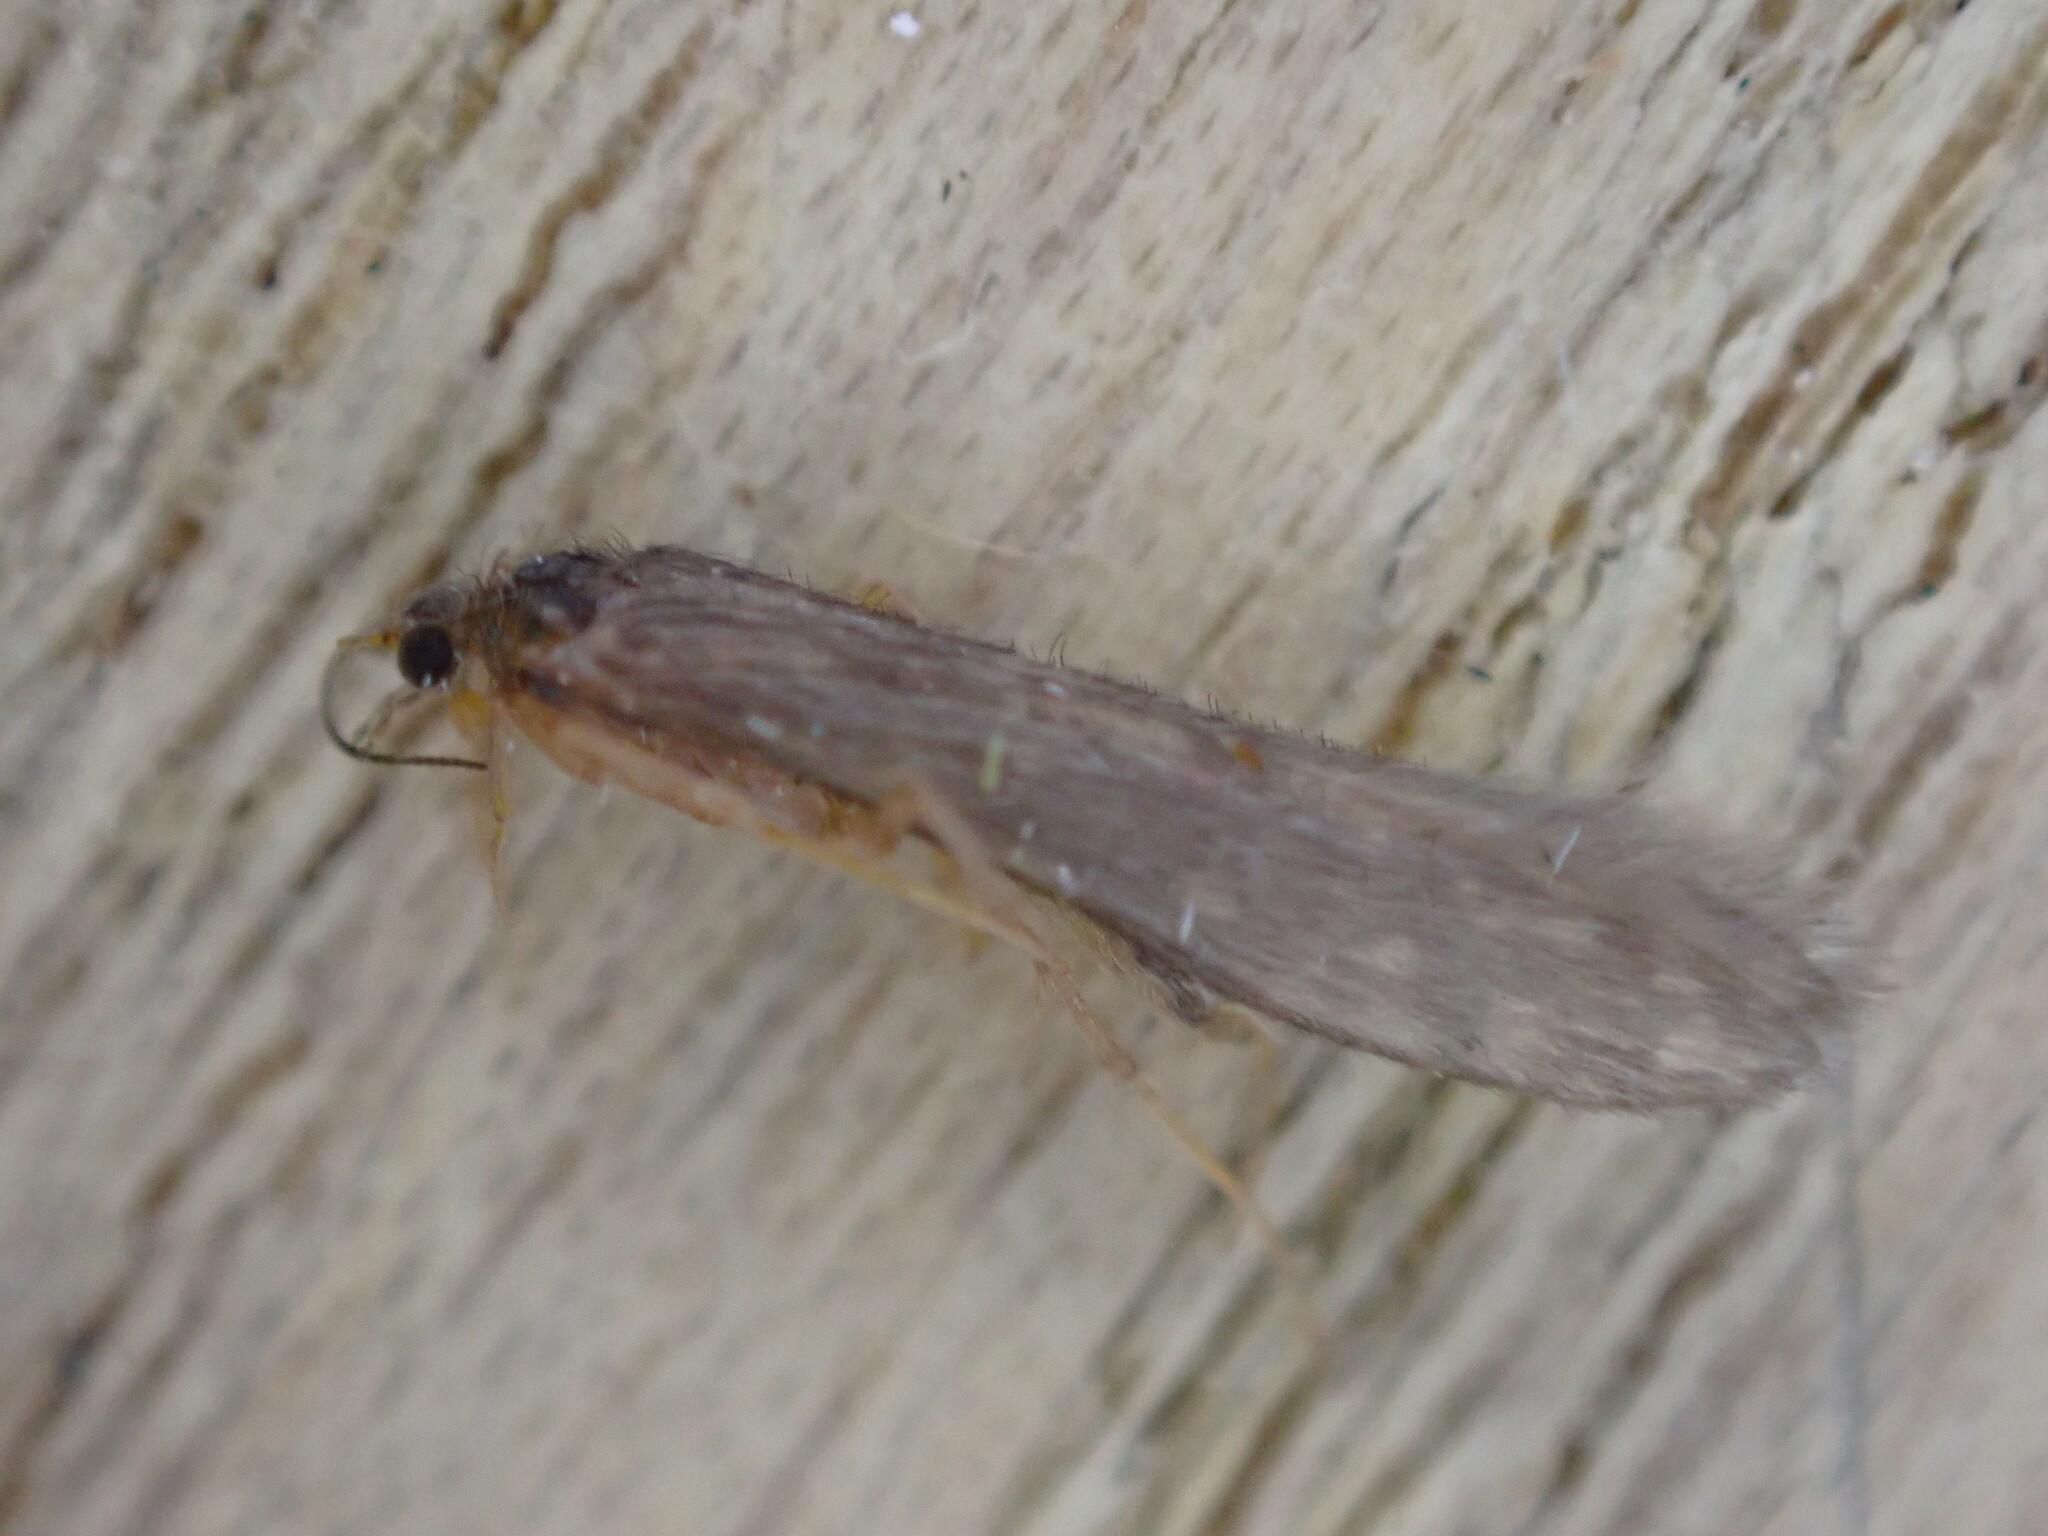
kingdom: Animalia
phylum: Arthropoda
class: Insecta
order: Trichoptera
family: Leptoceridae
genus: Oecetis
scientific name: Oecetis ochracea
